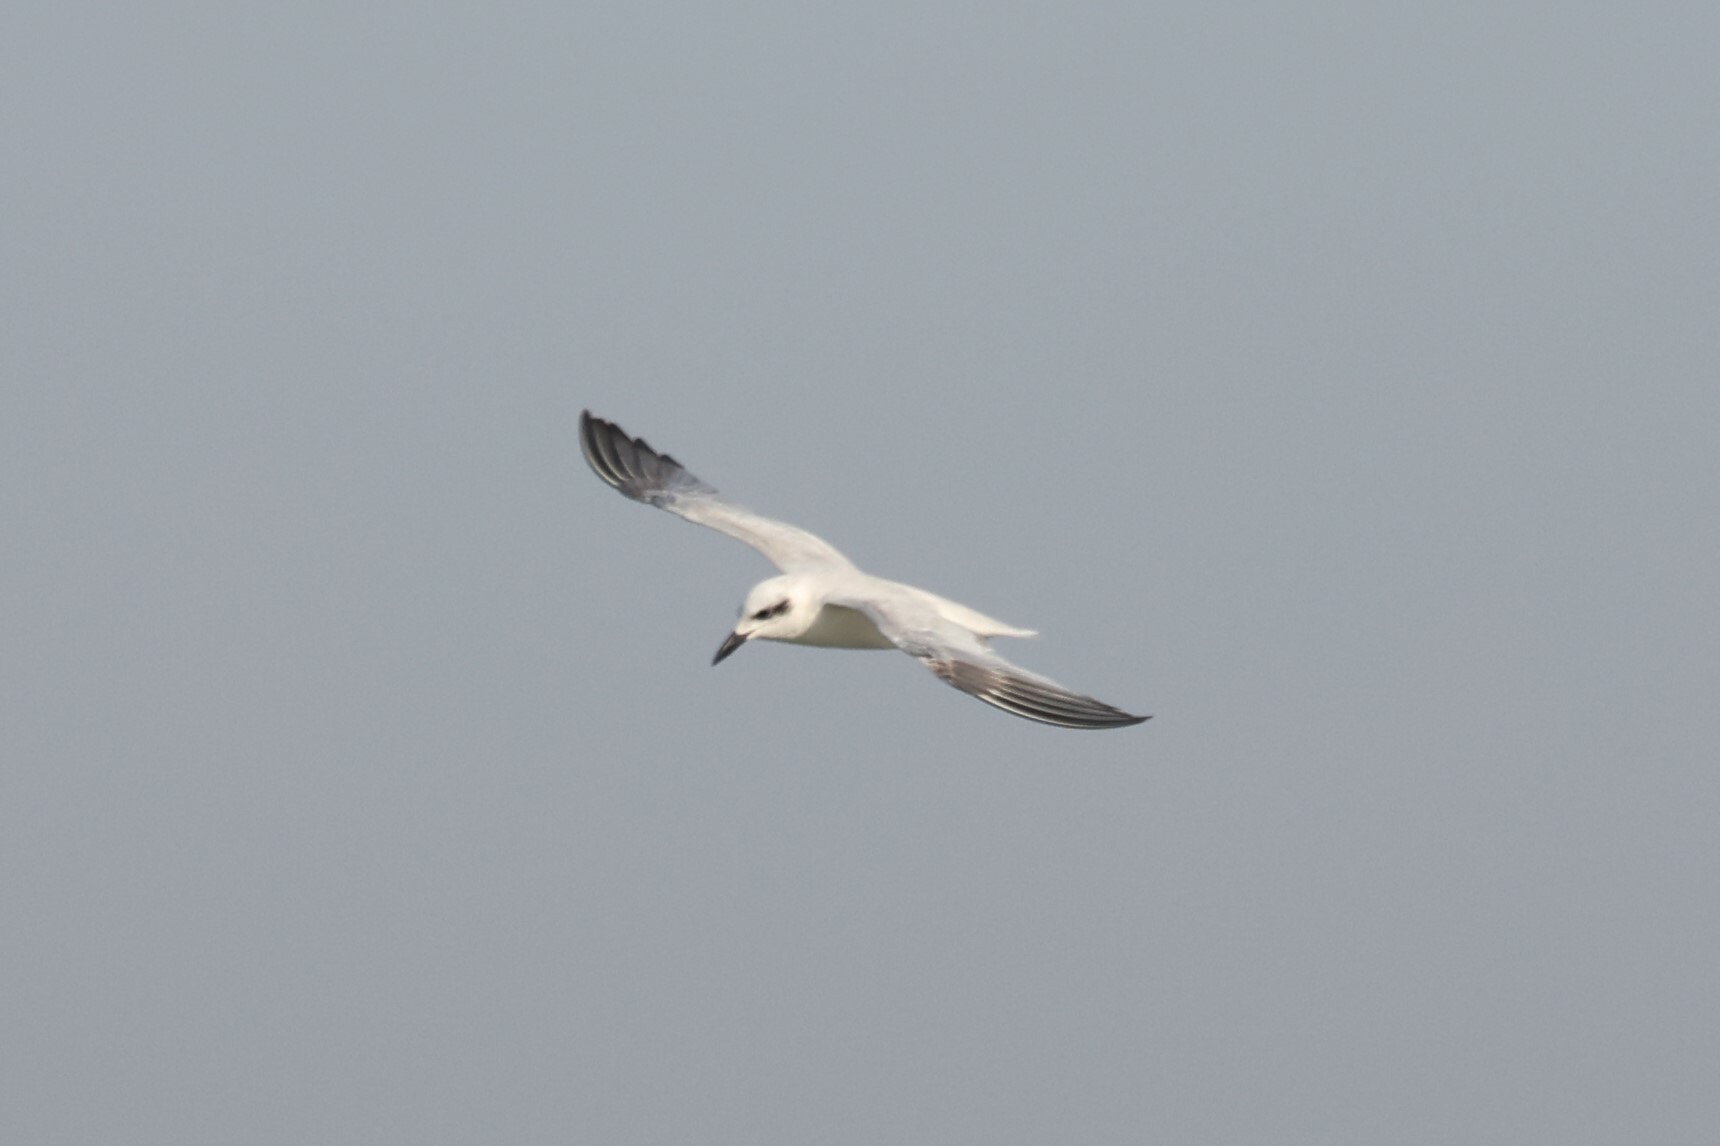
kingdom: Animalia
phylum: Chordata
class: Aves
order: Charadriiformes
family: Laridae
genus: Gelochelidon
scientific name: Gelochelidon nilotica
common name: Gull-billed tern
